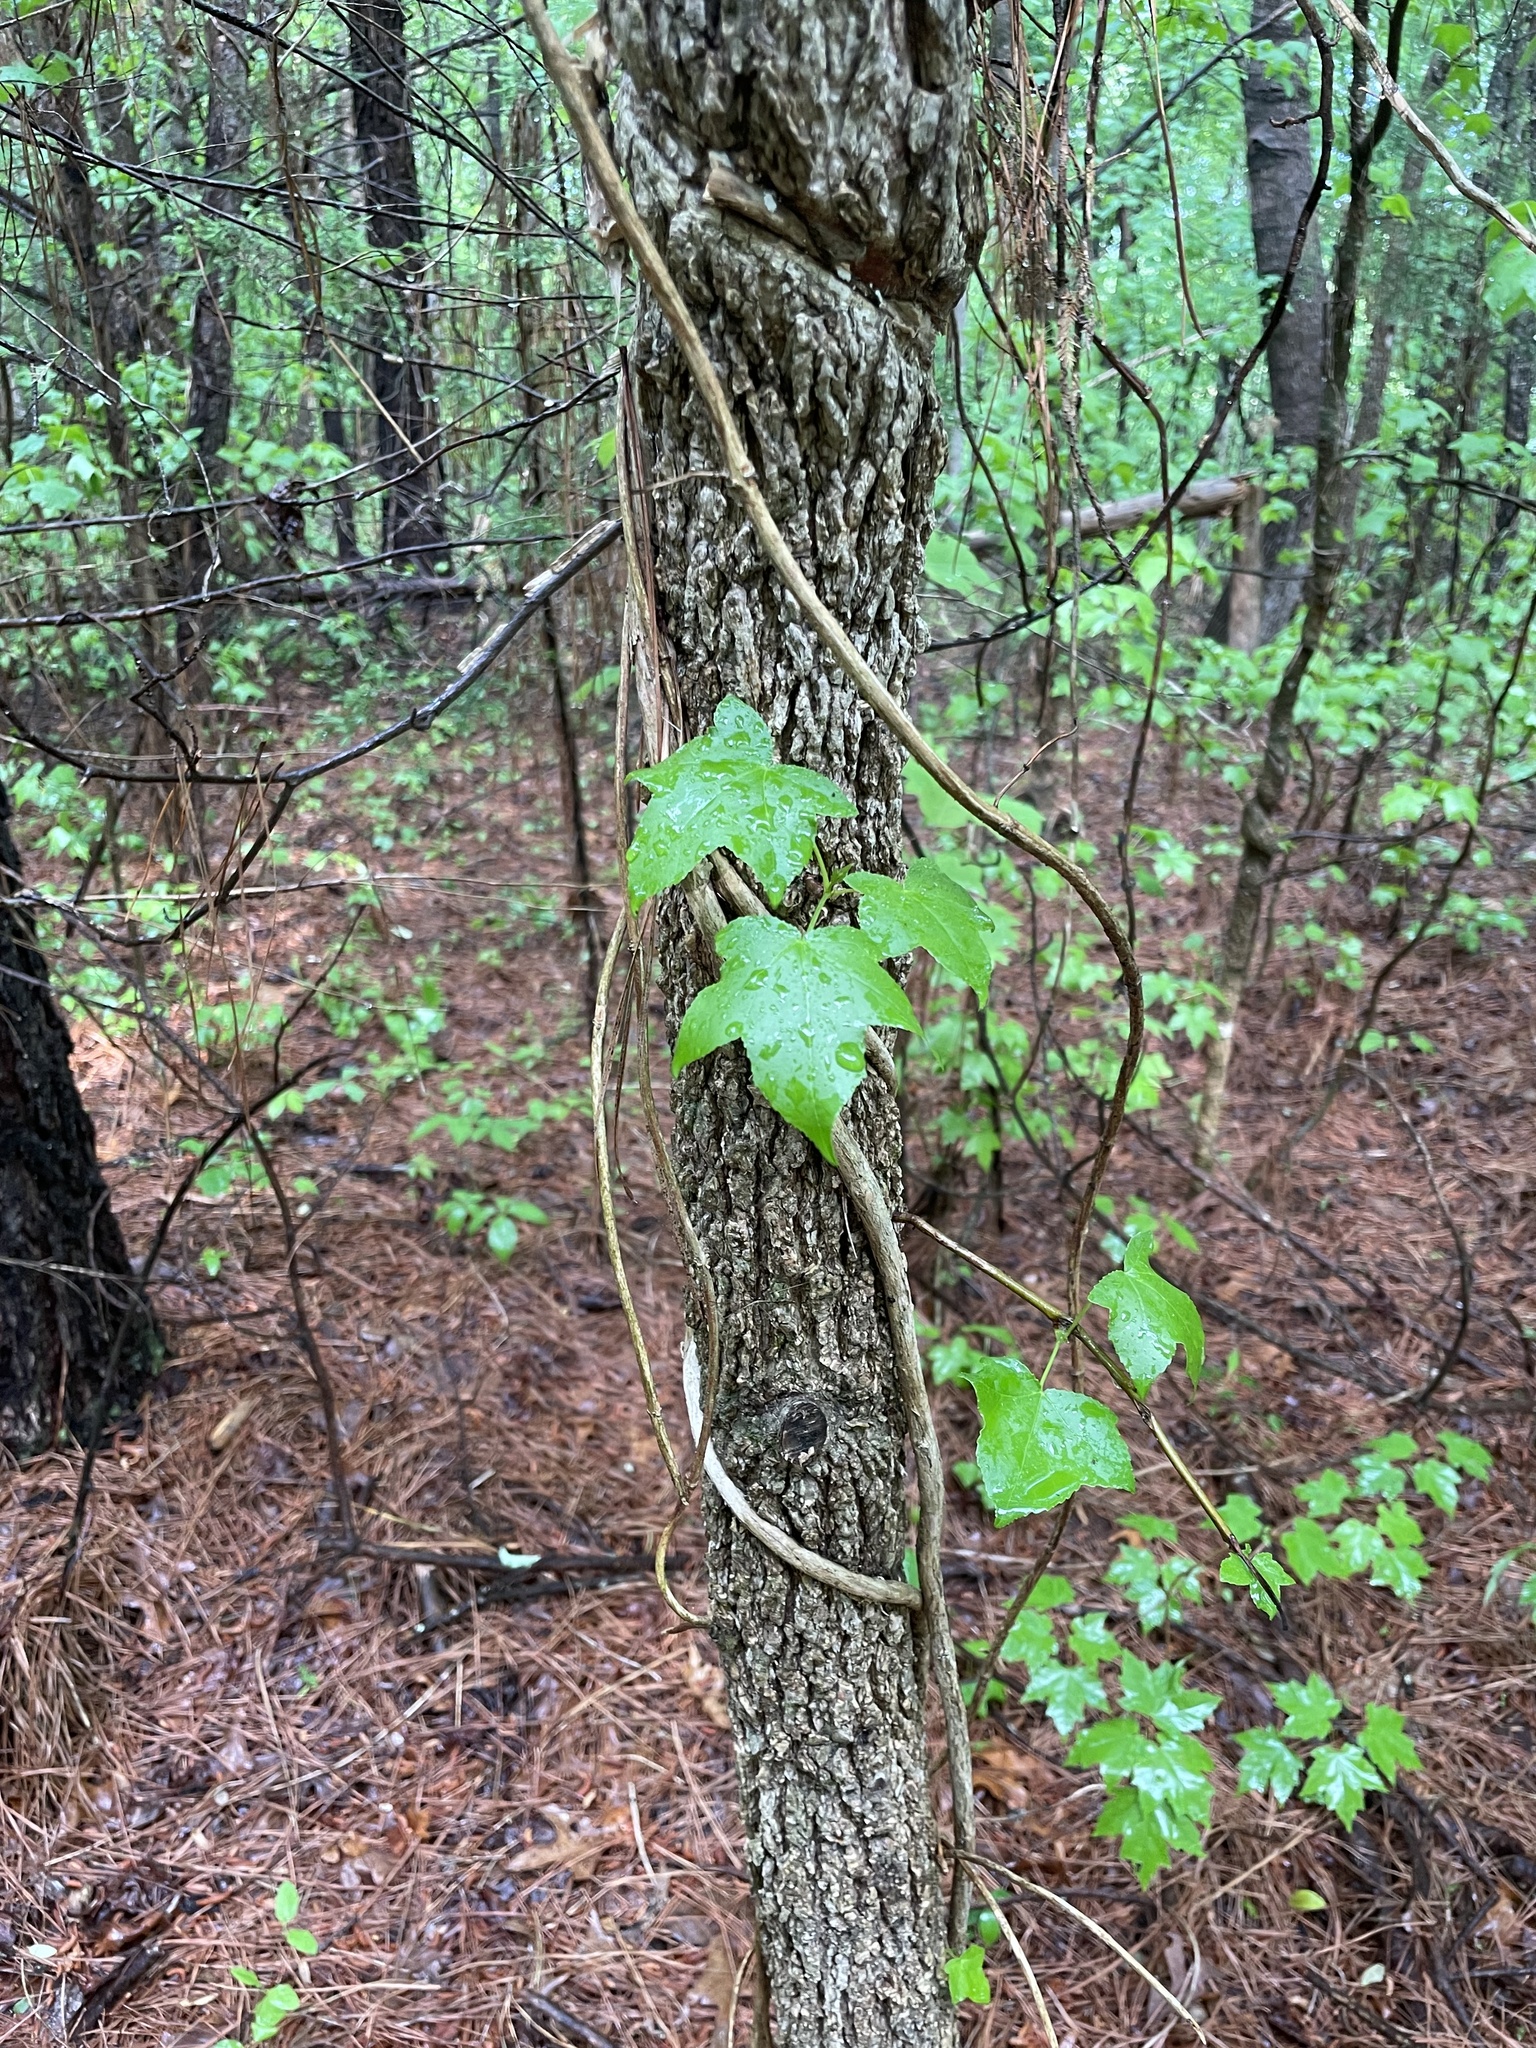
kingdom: Plantae
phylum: Tracheophyta
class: Magnoliopsida
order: Saxifragales
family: Altingiaceae
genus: Liquidambar
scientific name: Liquidambar styraciflua
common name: Sweet gum
